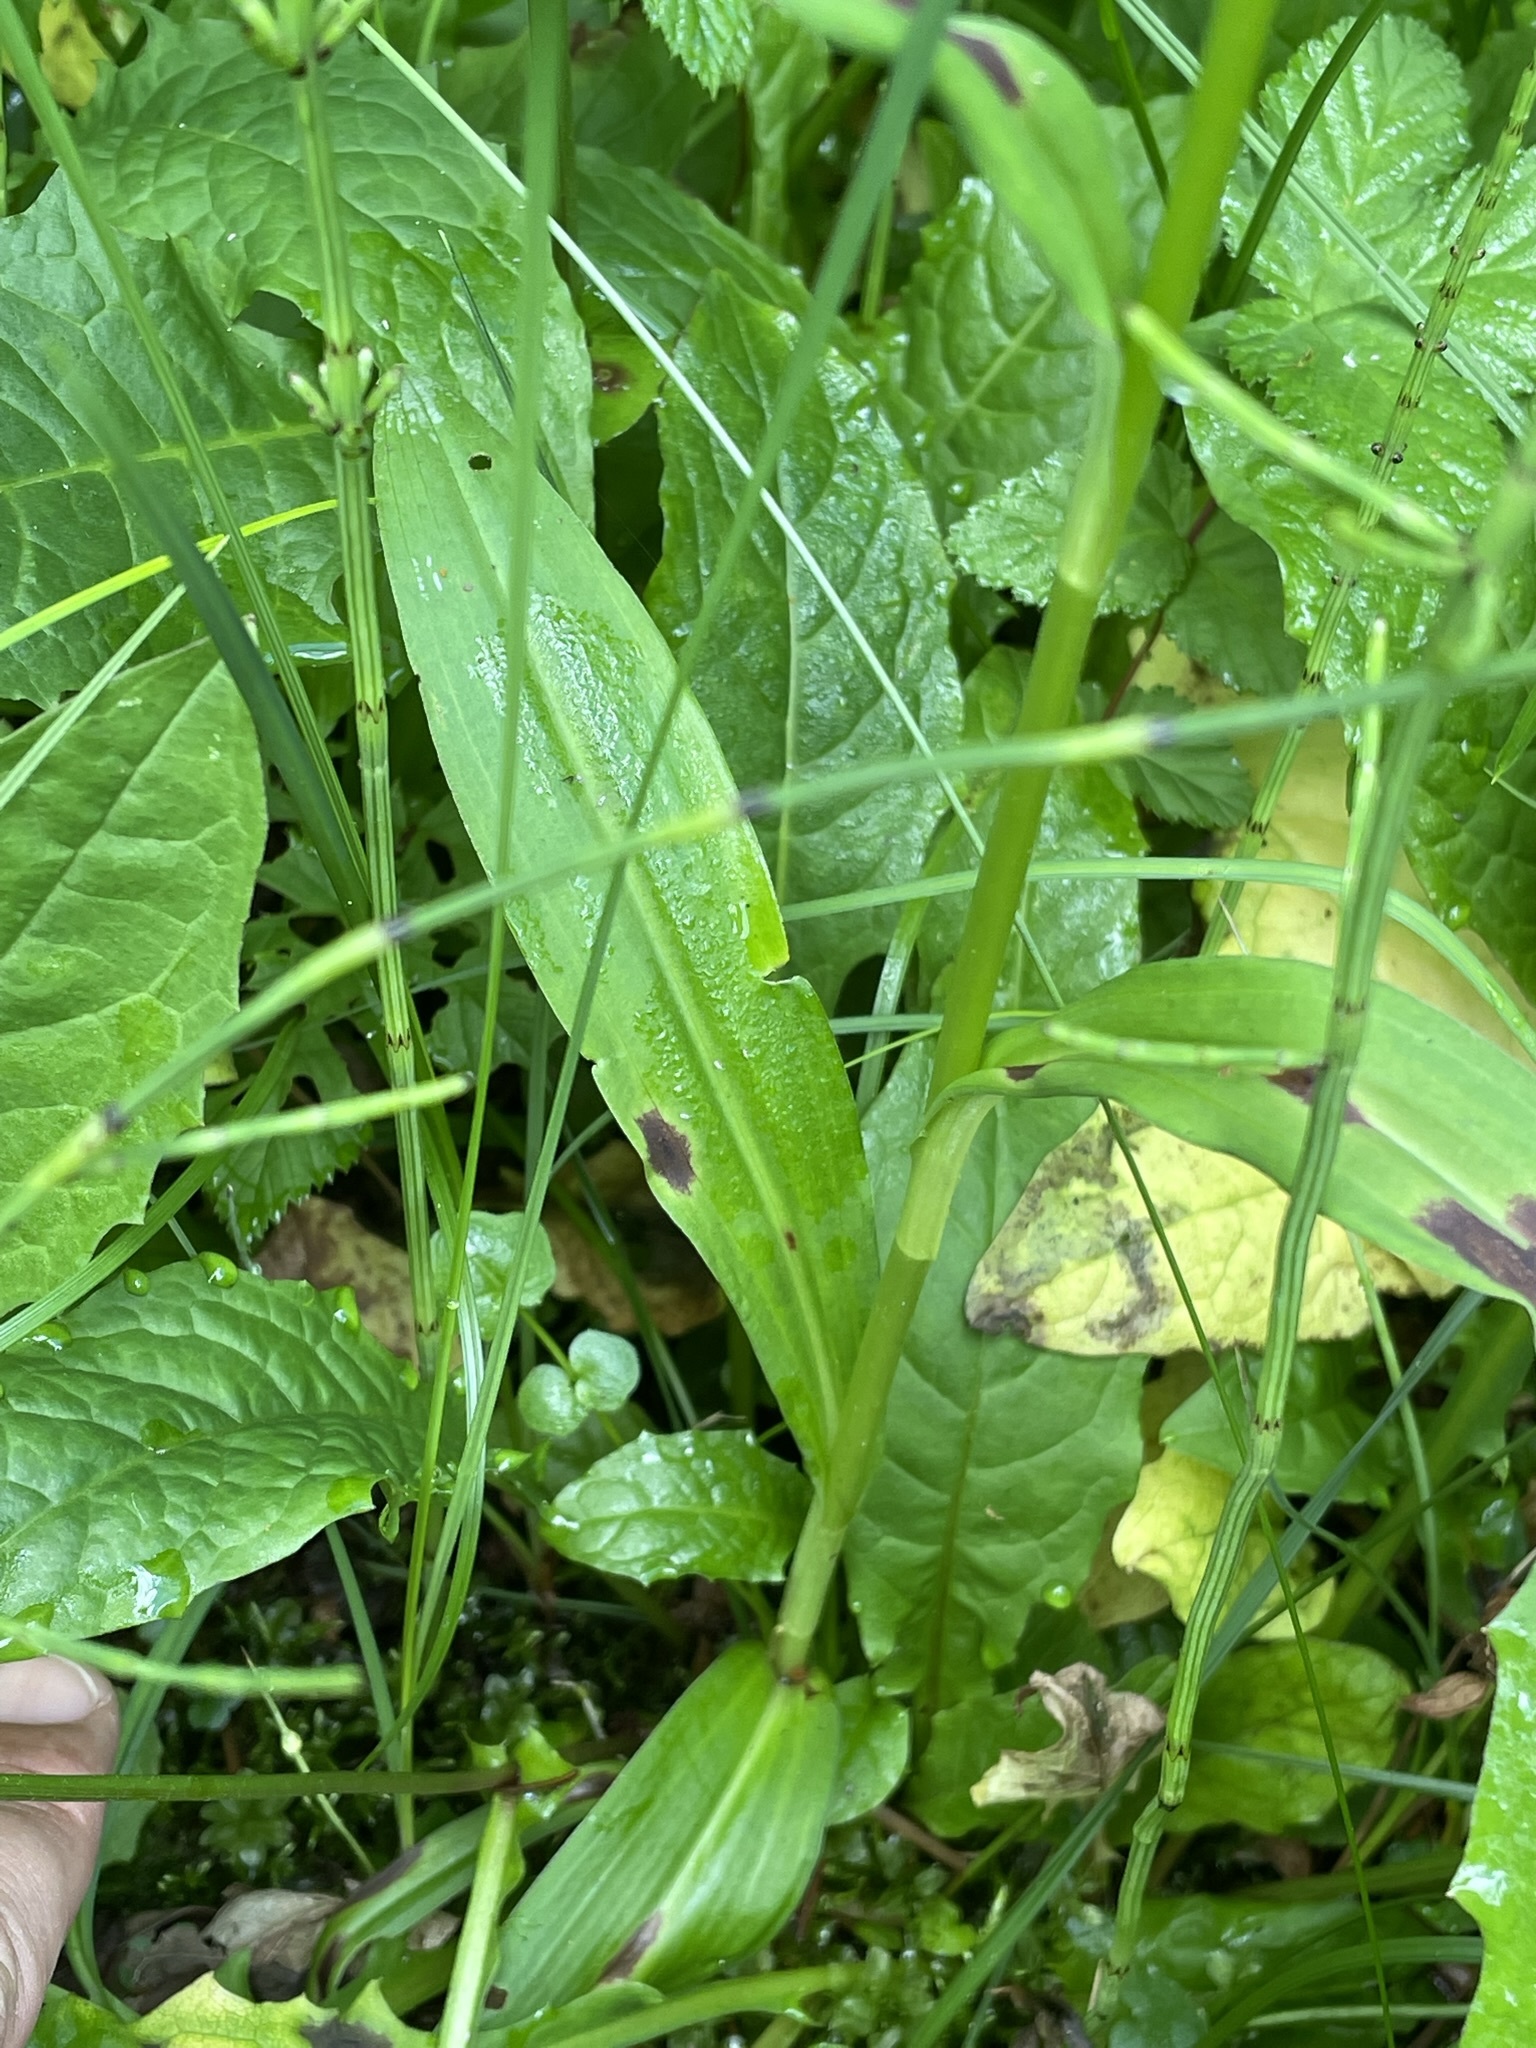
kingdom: Plantae
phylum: Tracheophyta
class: Liliopsida
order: Asparagales
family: Orchidaceae
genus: Dactylorhiza
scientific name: Dactylorhiza maculata
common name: Heath spotted-orchid
